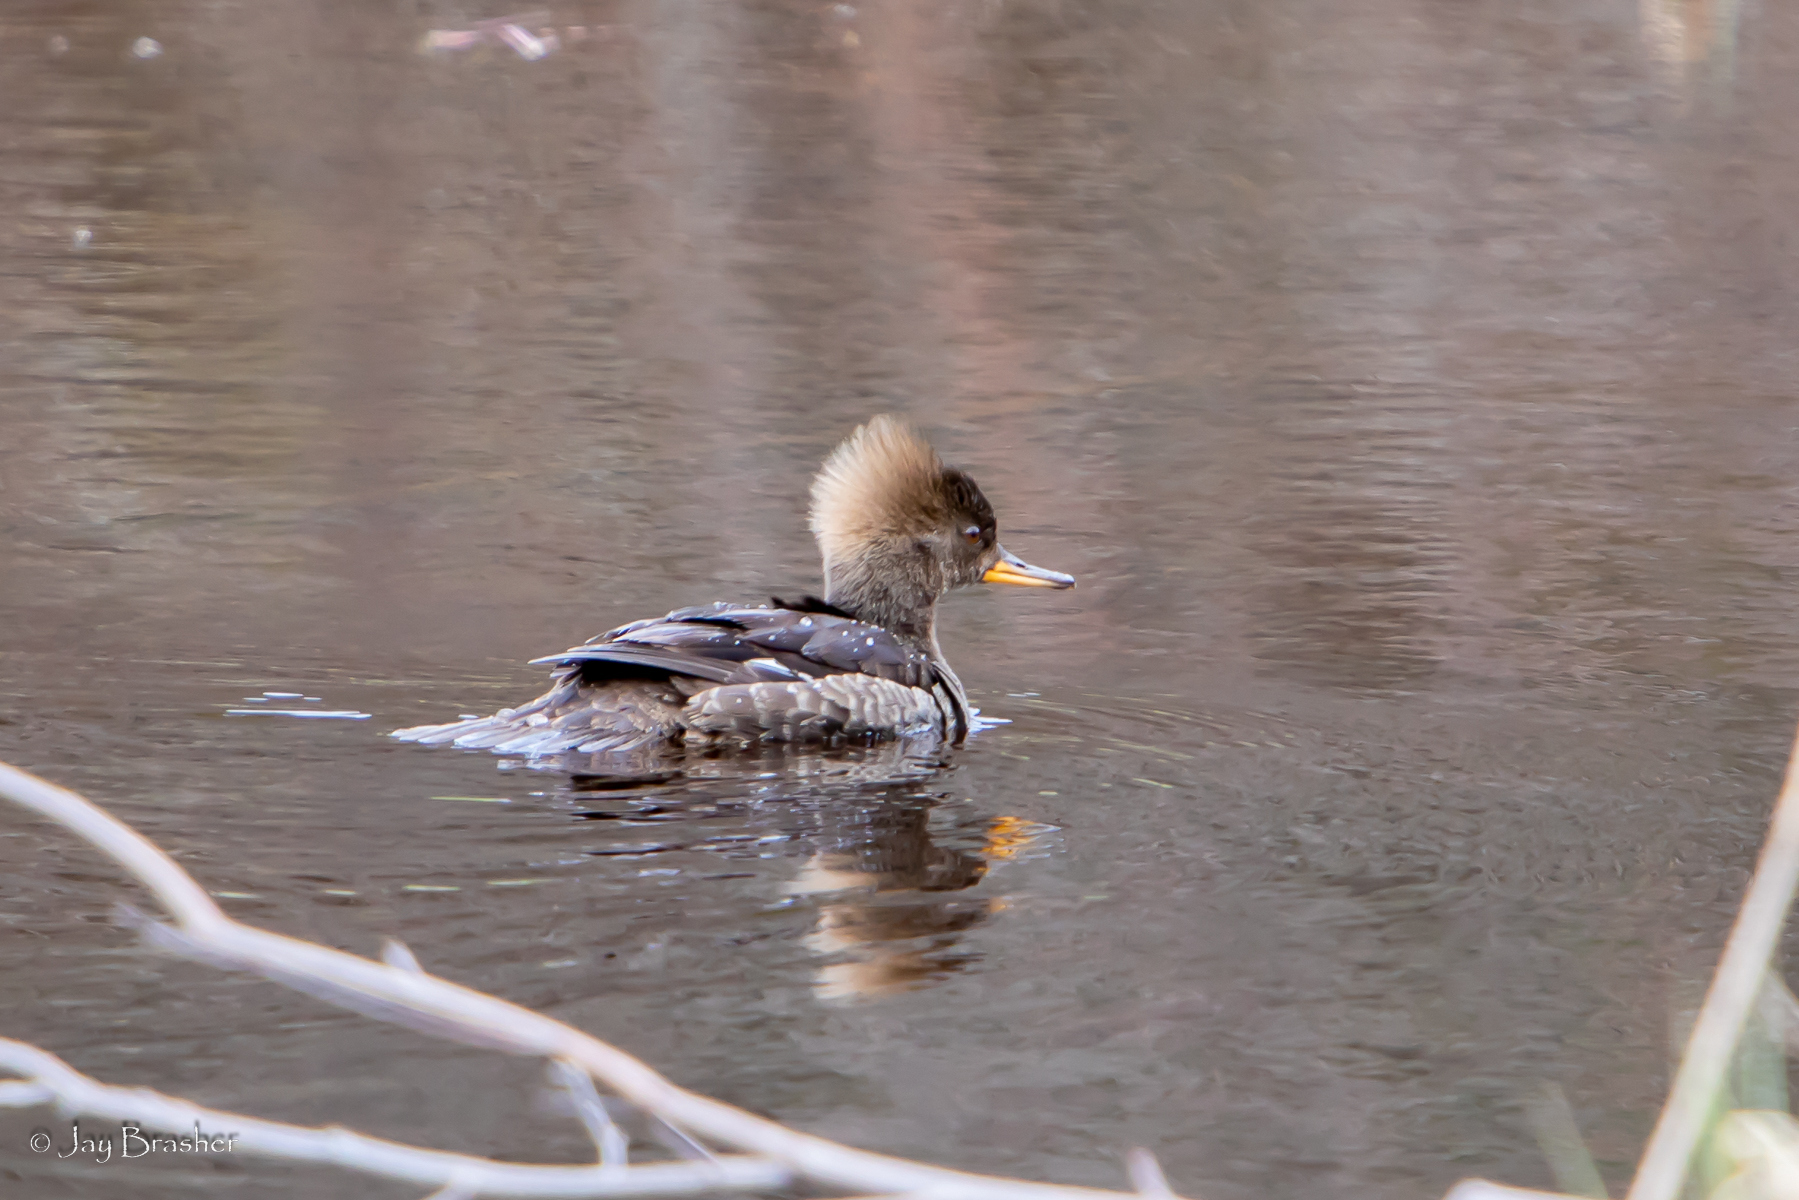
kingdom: Animalia
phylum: Chordata
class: Aves
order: Anseriformes
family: Anatidae
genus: Lophodytes
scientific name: Lophodytes cucullatus
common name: Hooded merganser
